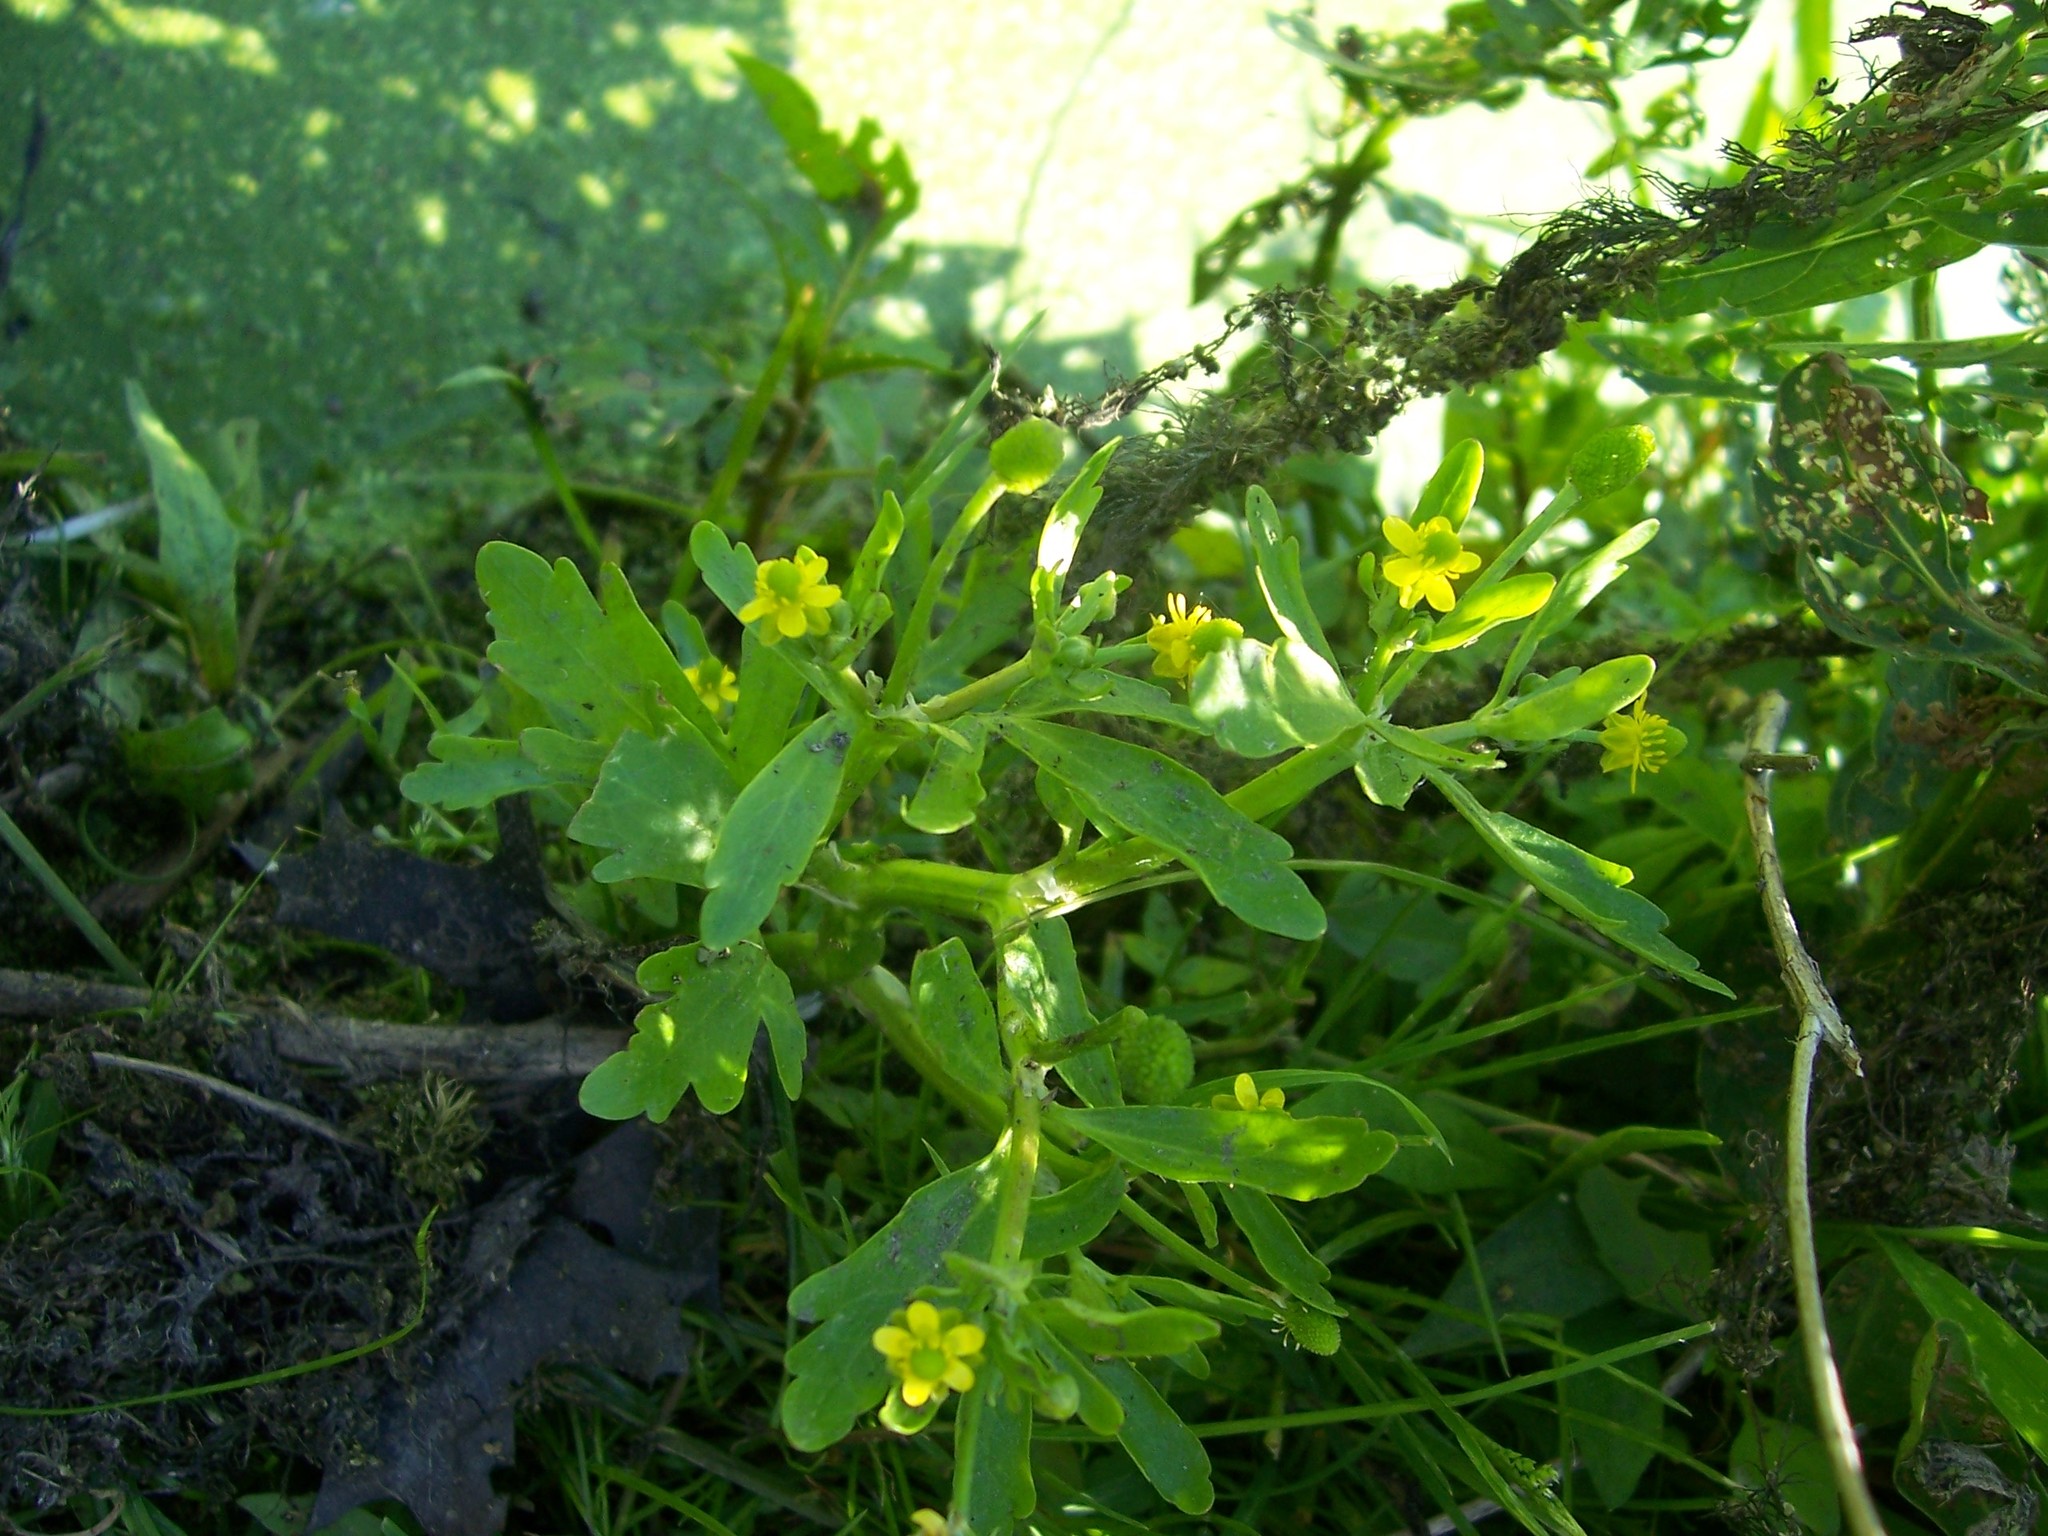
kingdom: Plantae
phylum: Tracheophyta
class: Magnoliopsida
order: Ranunculales
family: Ranunculaceae
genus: Ranunculus
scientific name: Ranunculus sceleratus
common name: Celery-leaved buttercup
